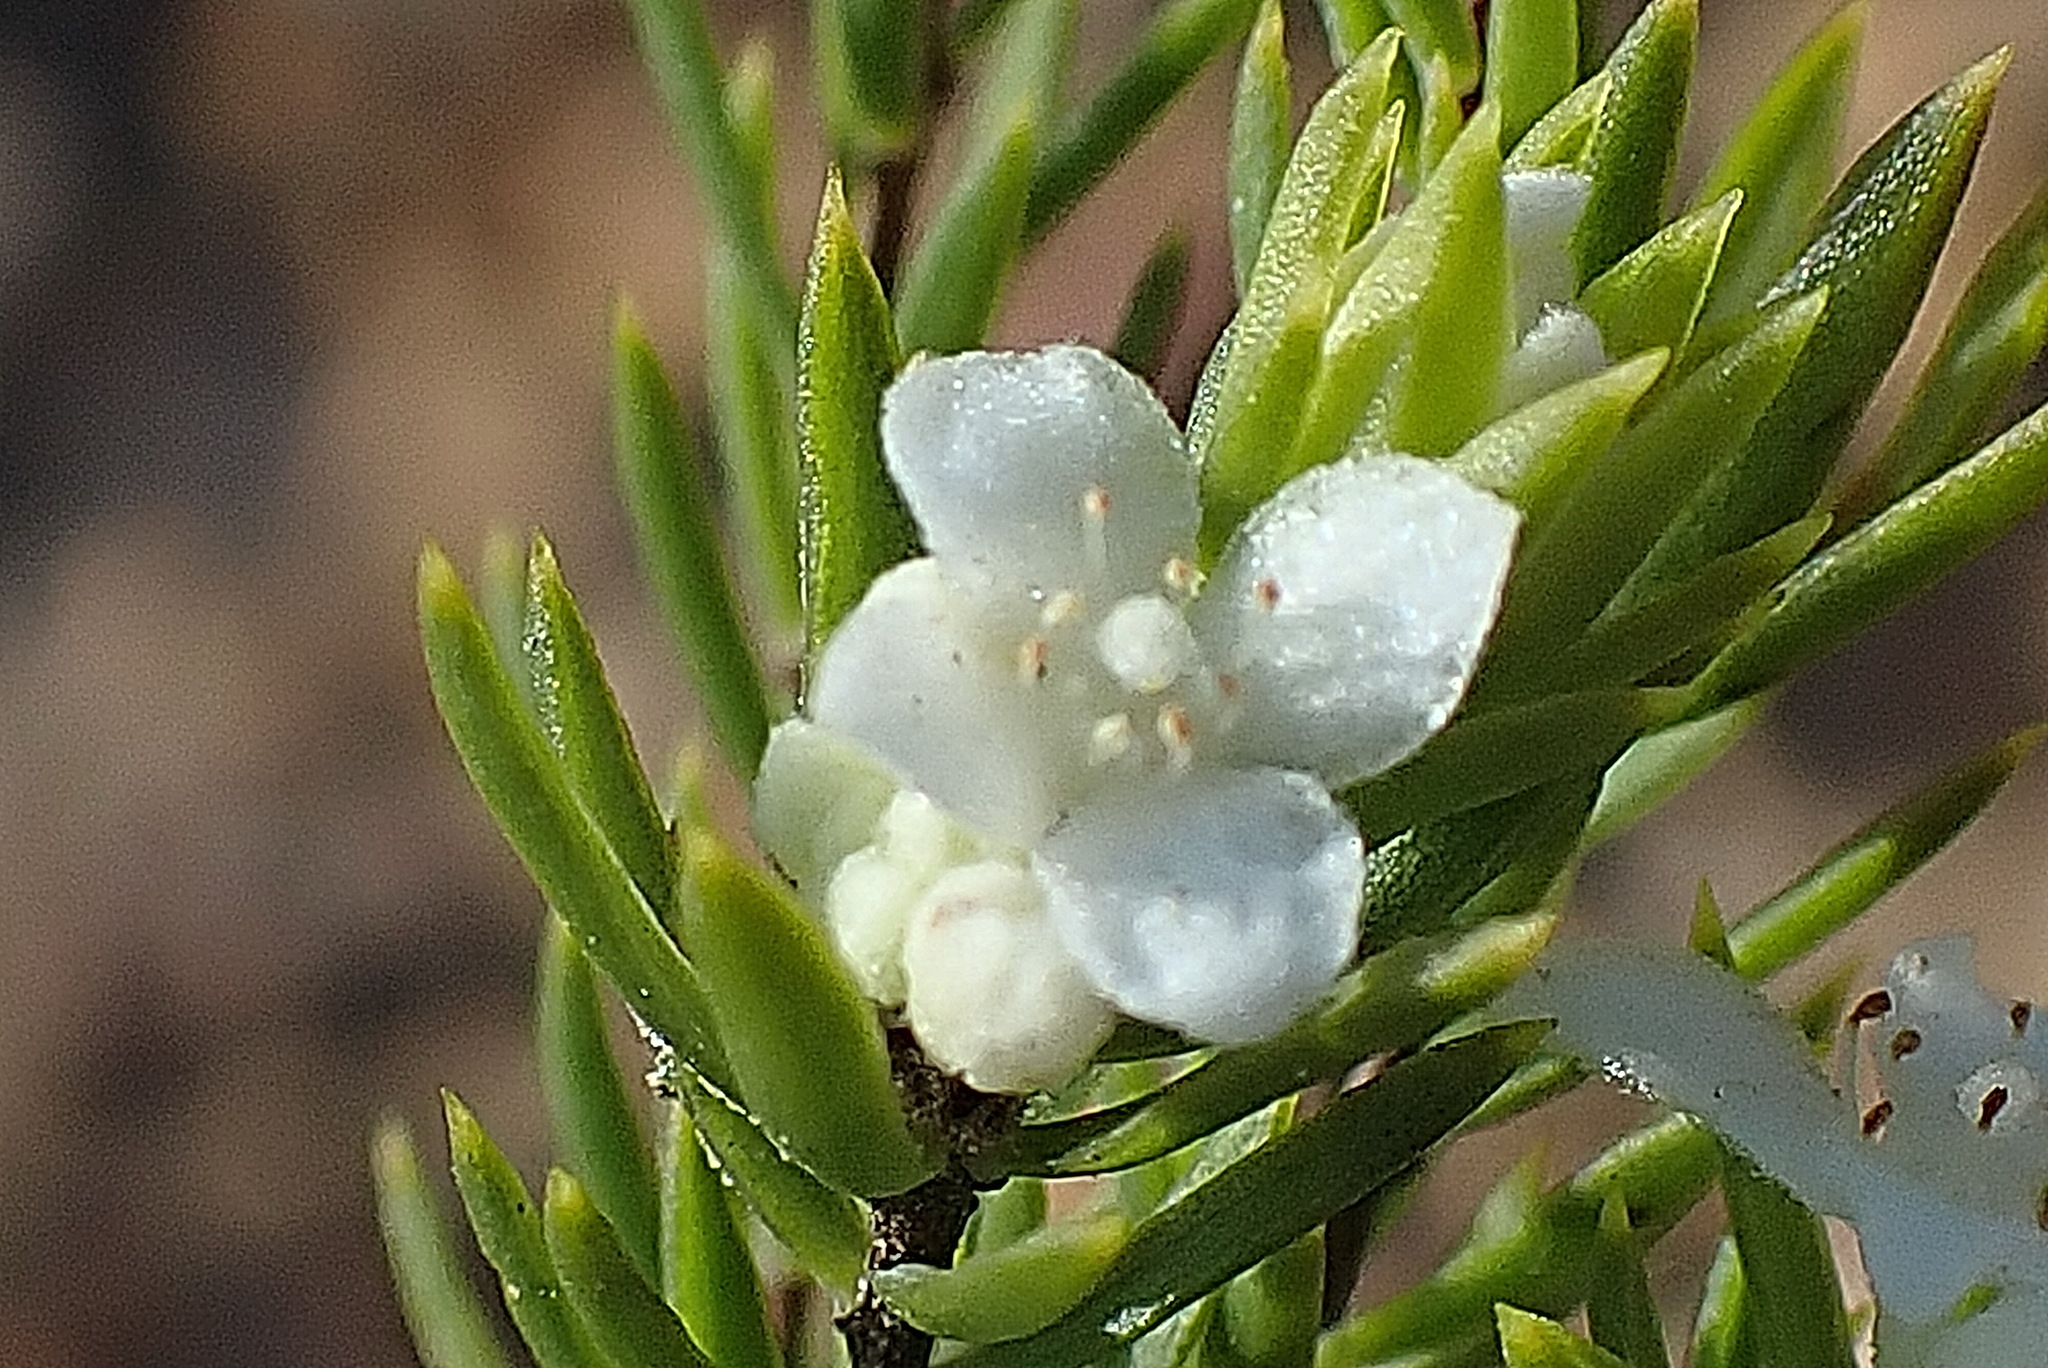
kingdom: Plantae
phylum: Tracheophyta
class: Magnoliopsida
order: Malvales
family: Thymelaeaceae
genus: Lachnaea
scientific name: Lachnaea diosmoides
